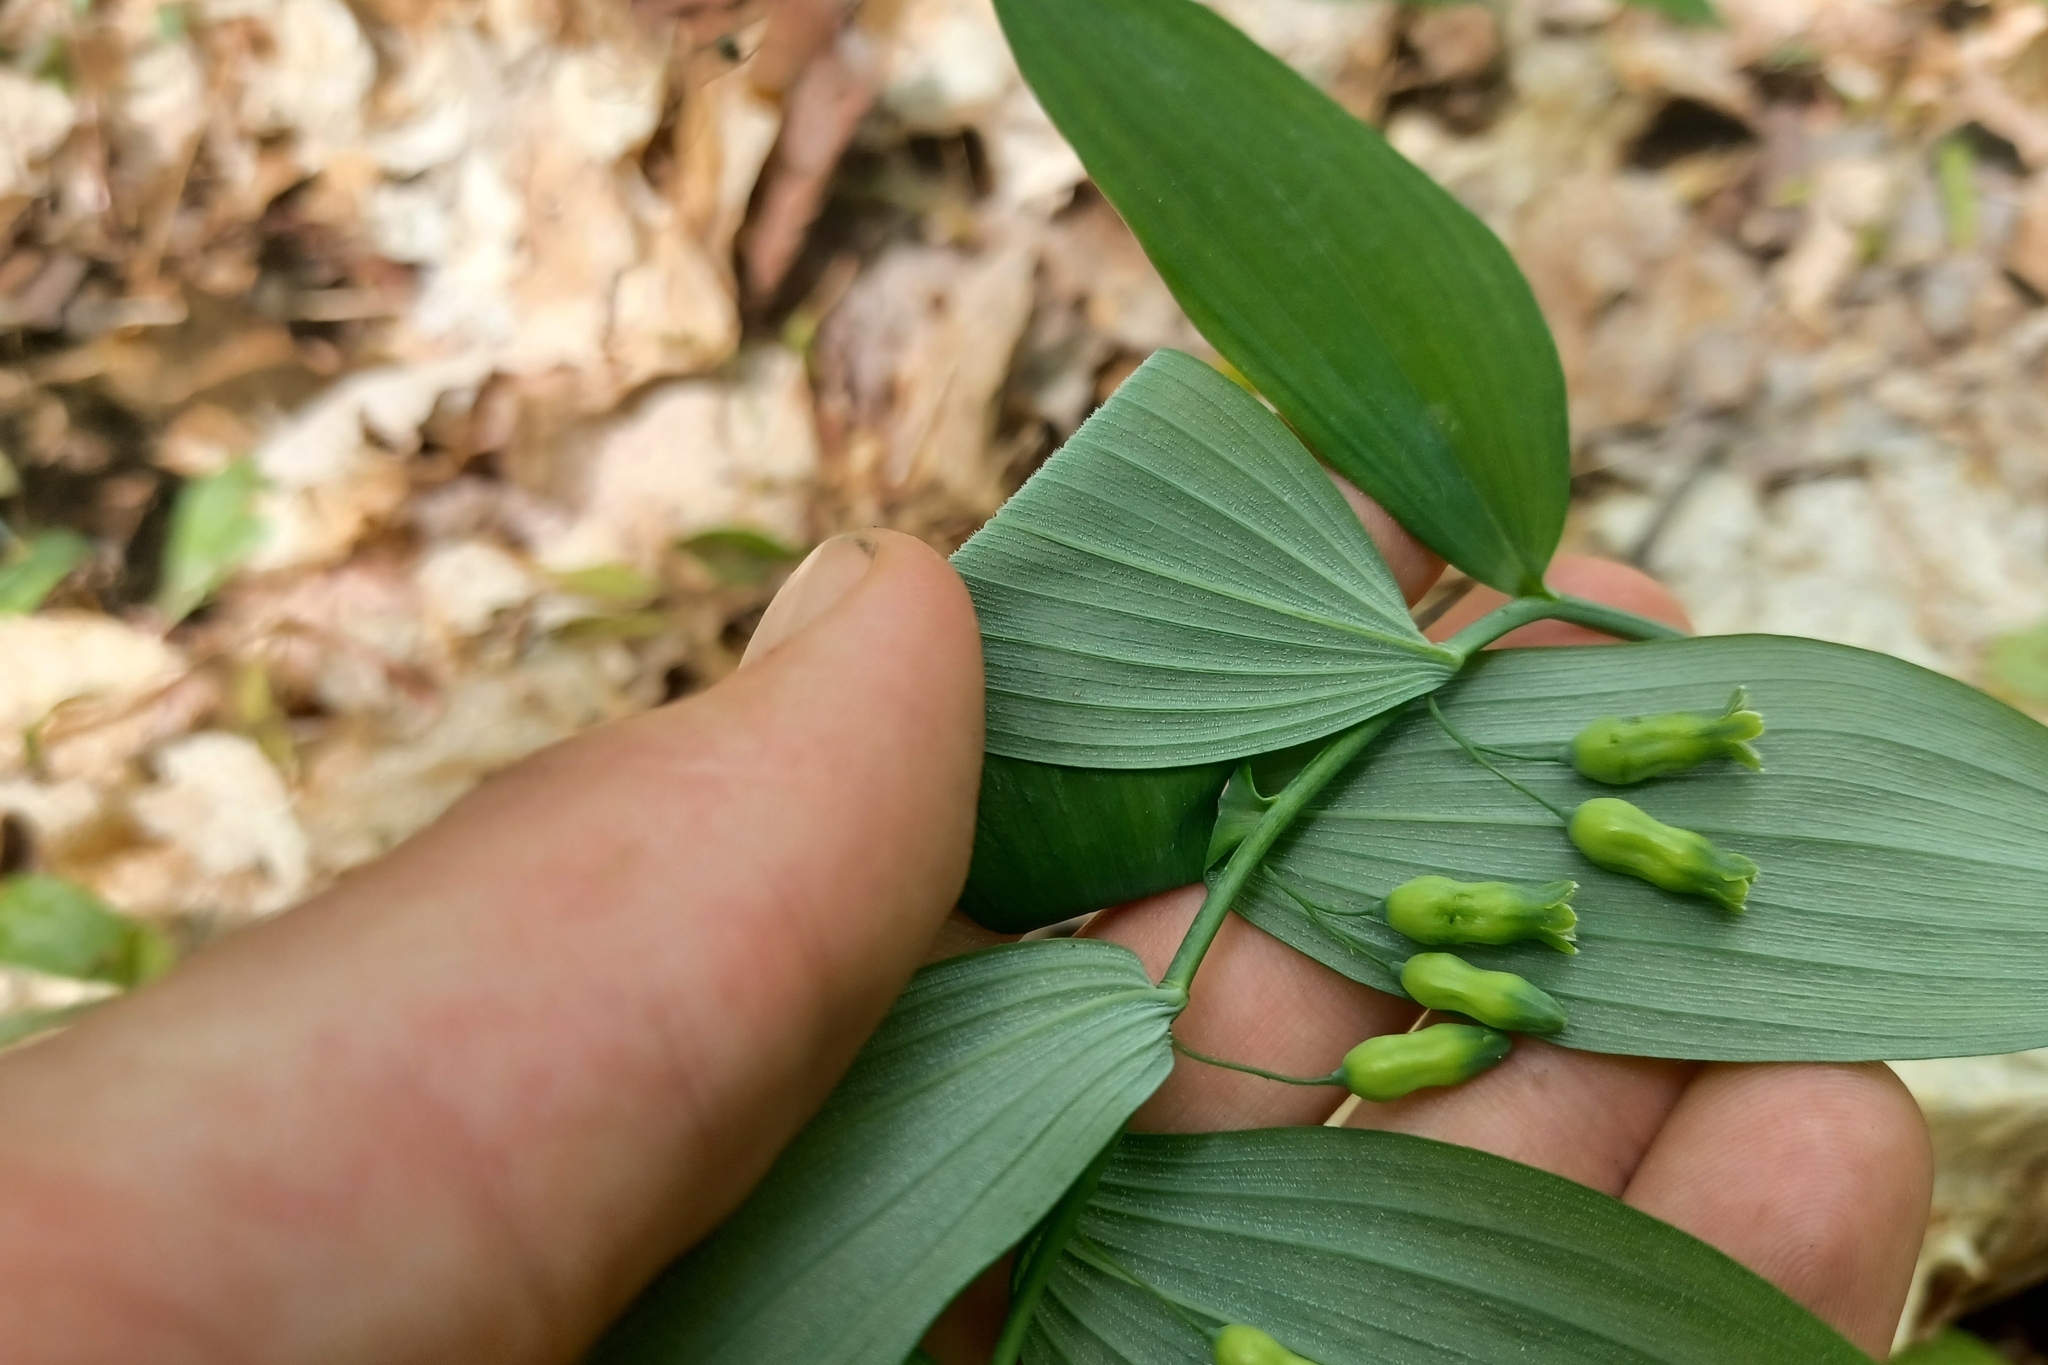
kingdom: Plantae
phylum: Tracheophyta
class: Liliopsida
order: Asparagales
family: Asparagaceae
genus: Polygonatum
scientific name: Polygonatum pubescens
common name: Downy solomon's seal
